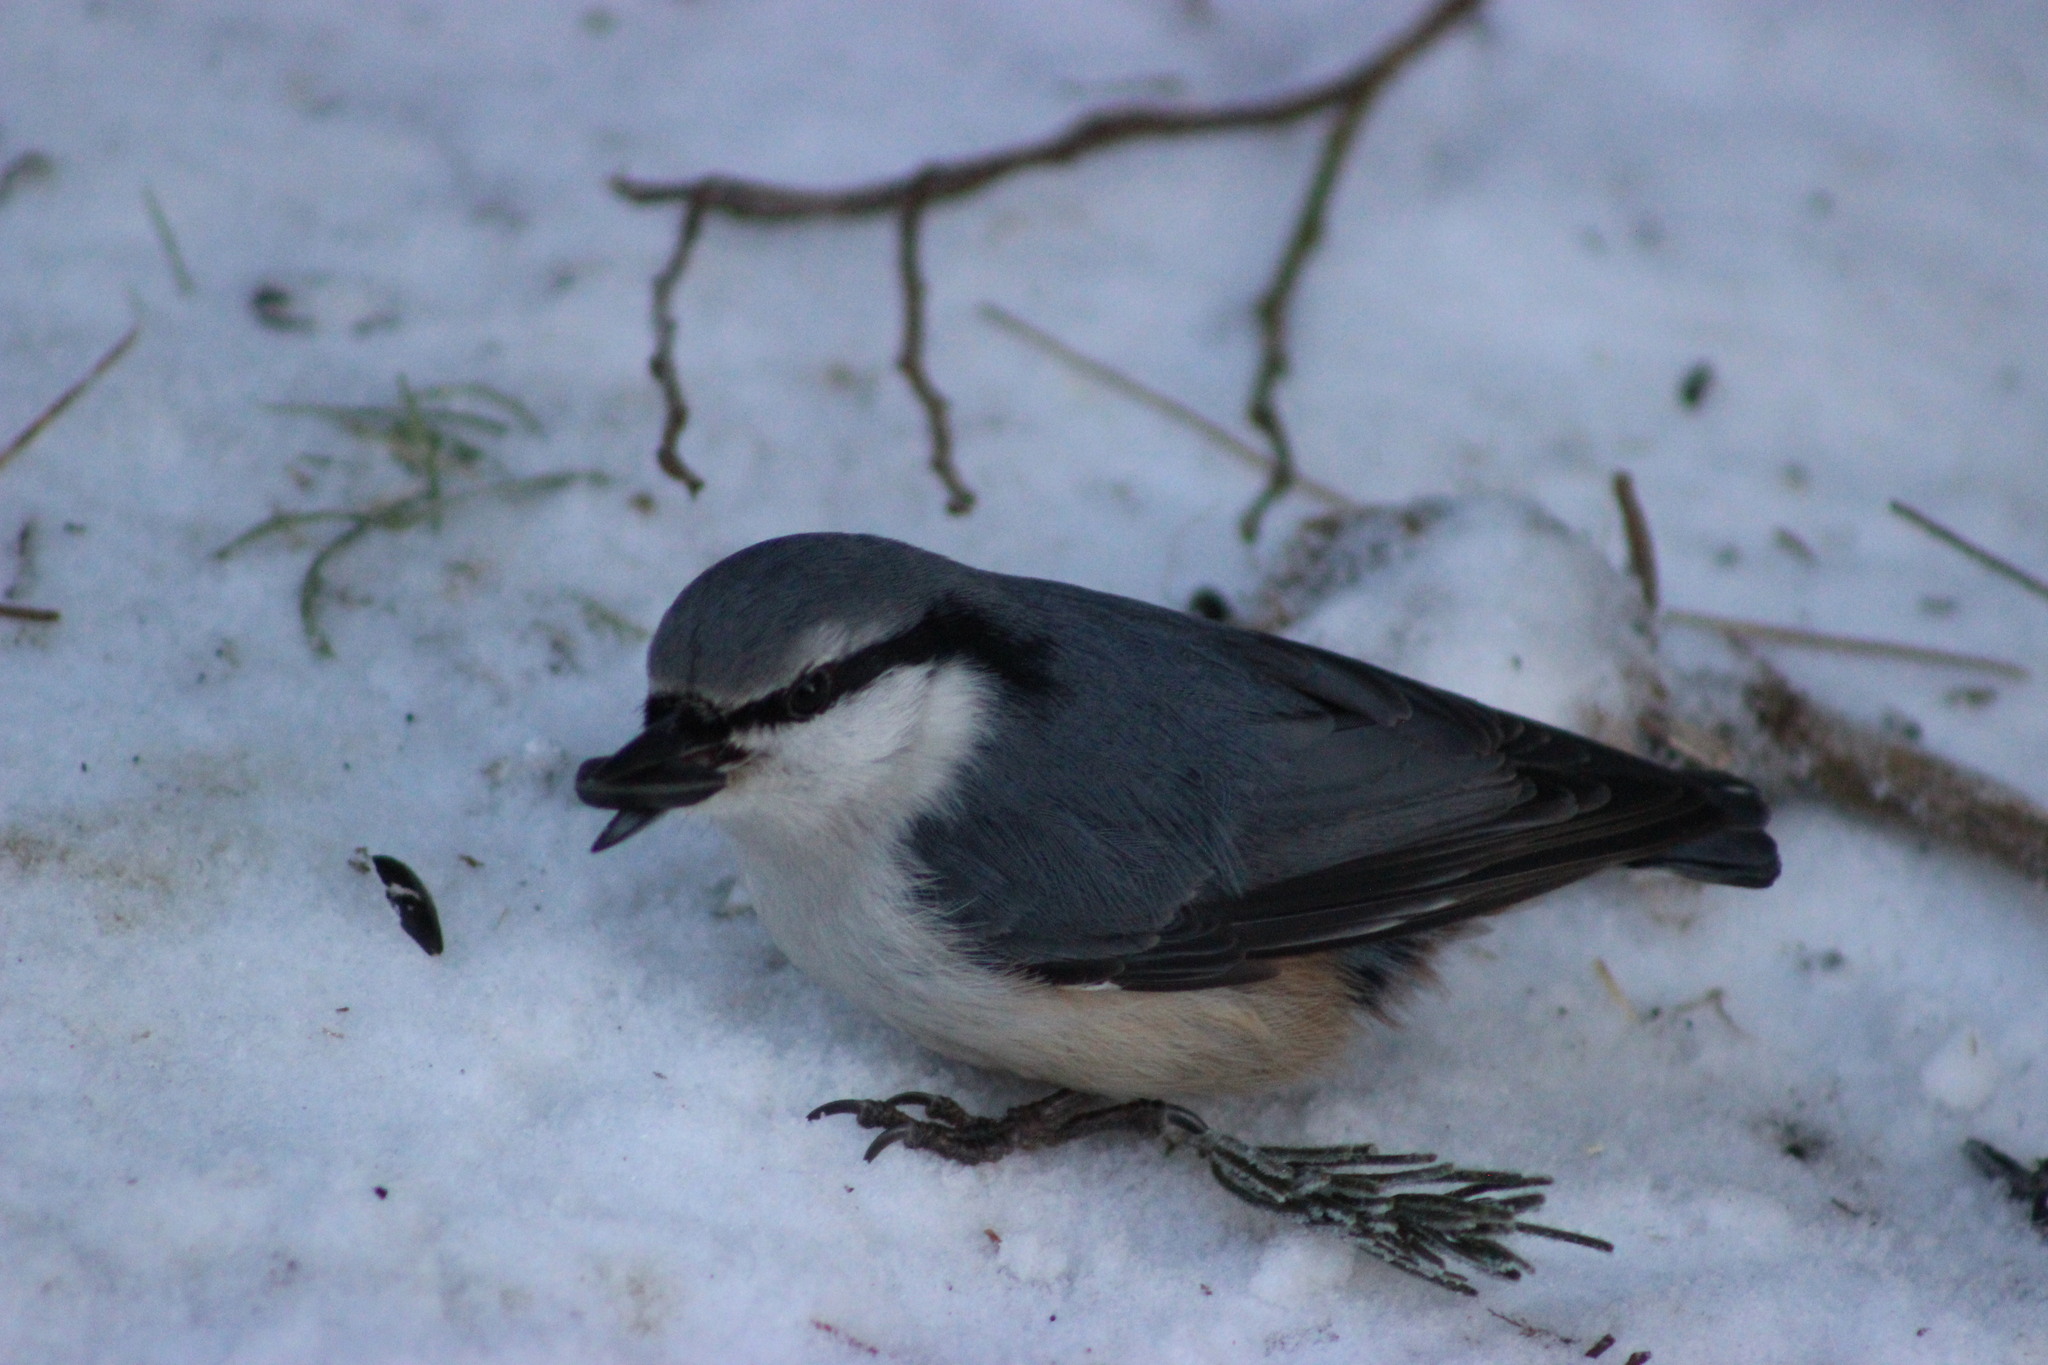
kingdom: Animalia
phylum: Chordata
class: Aves
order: Passeriformes
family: Sittidae
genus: Sitta
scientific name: Sitta europaea
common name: Eurasian nuthatch
